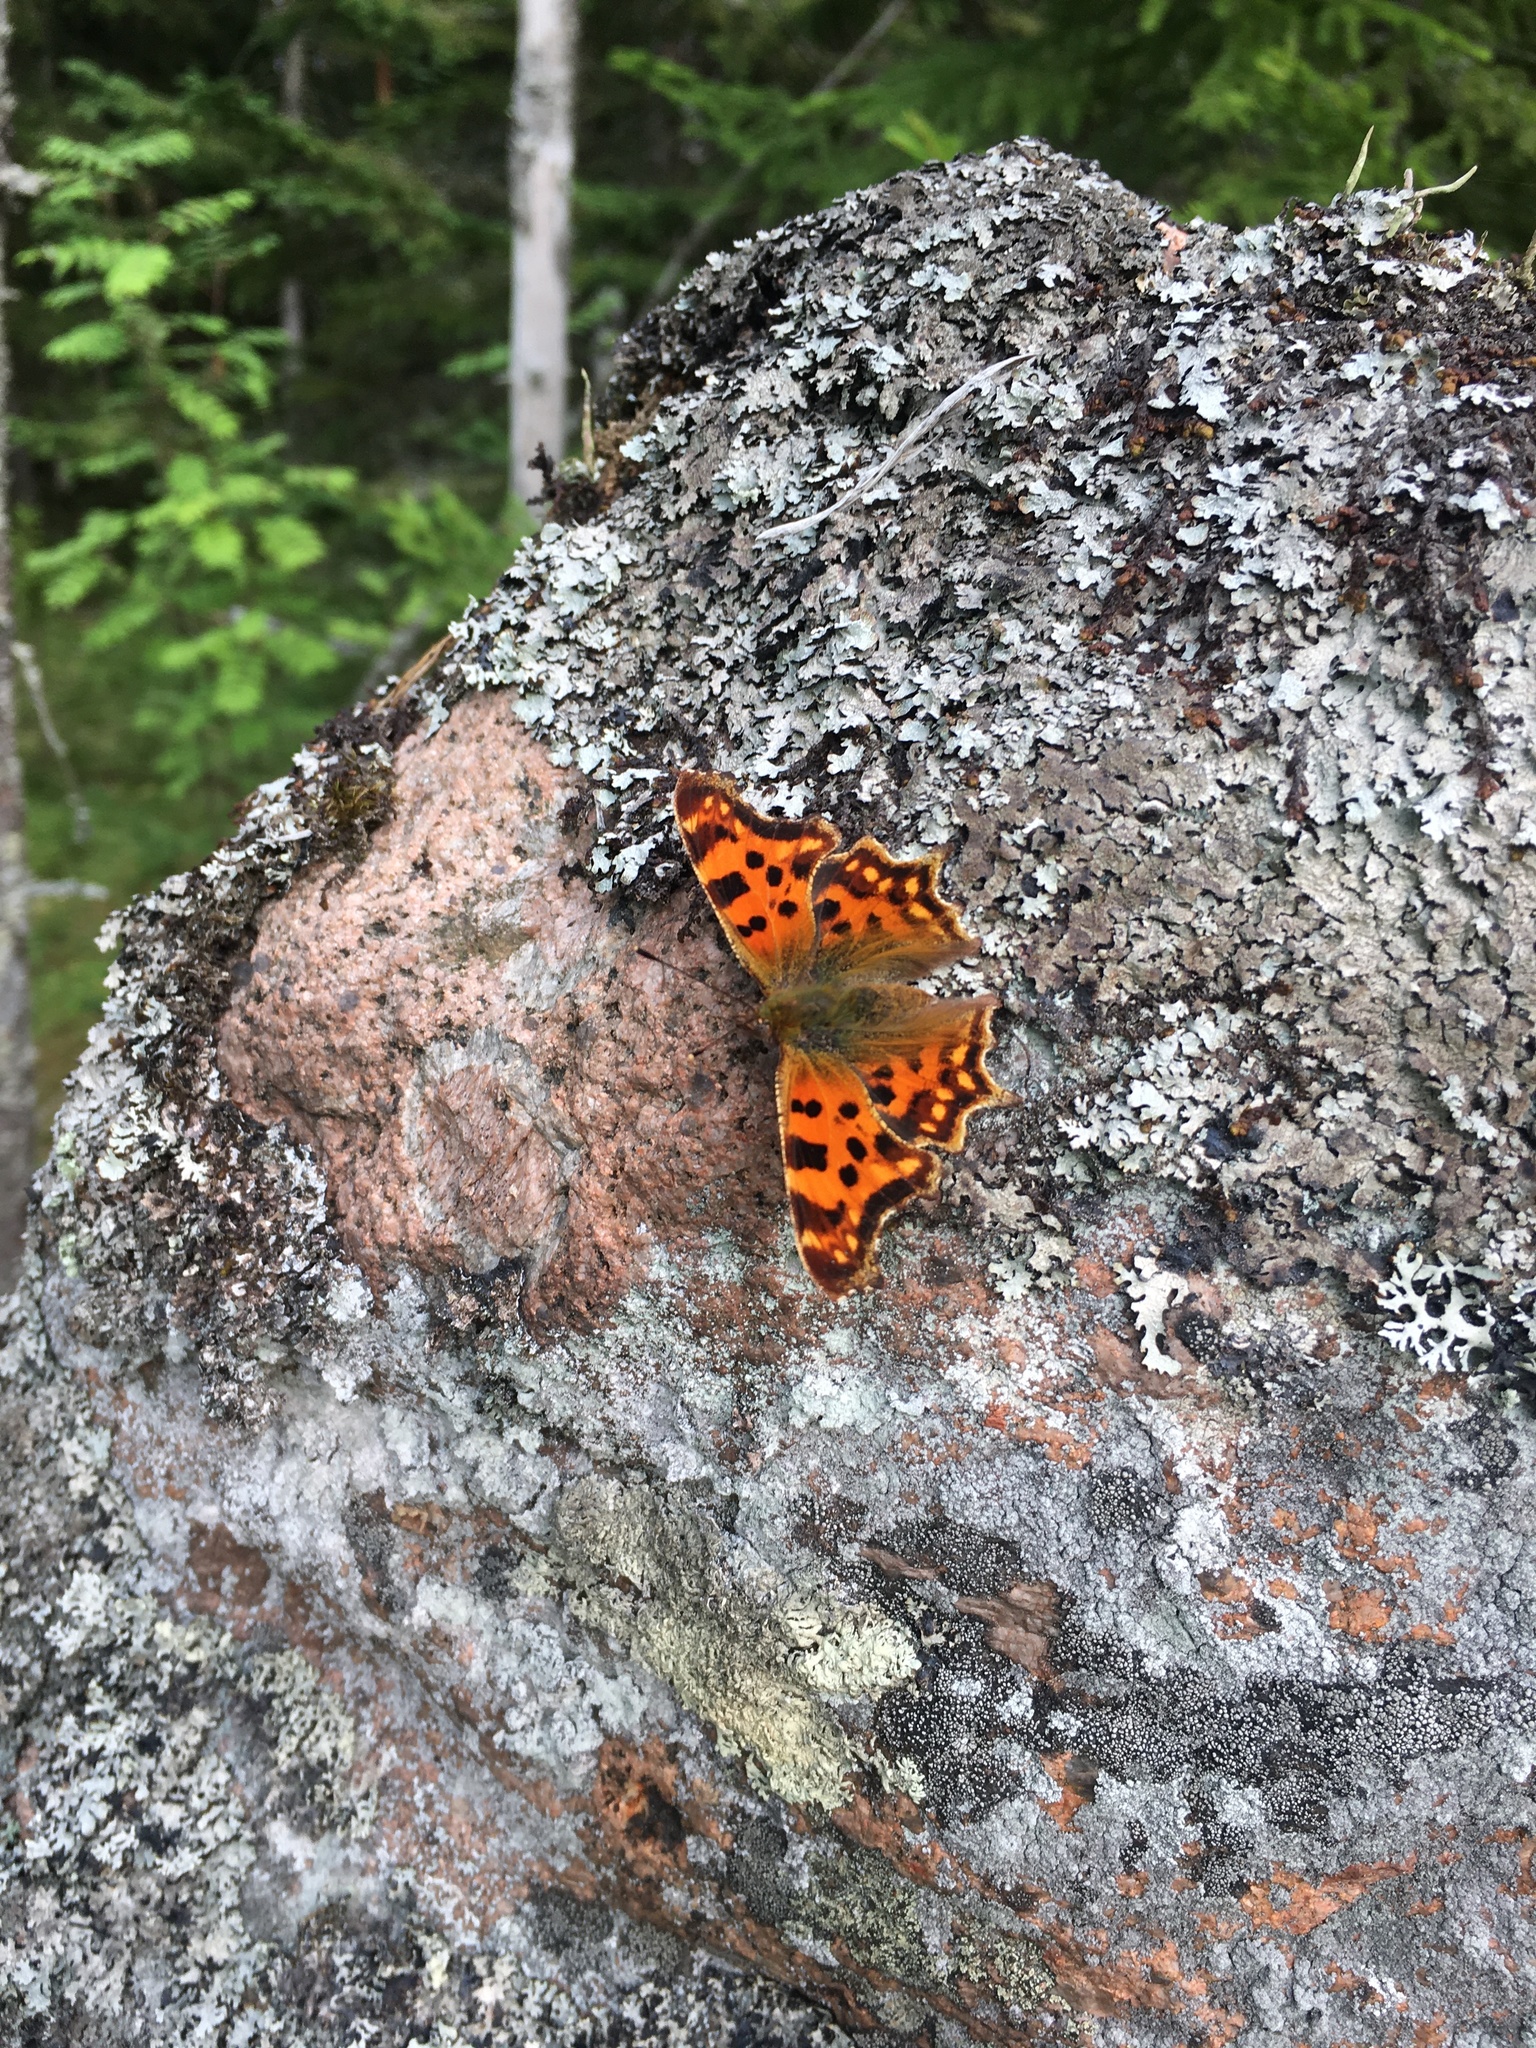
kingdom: Animalia
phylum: Arthropoda
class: Insecta
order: Lepidoptera
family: Nymphalidae
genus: Polygonia
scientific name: Polygonia c-album
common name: Comma
